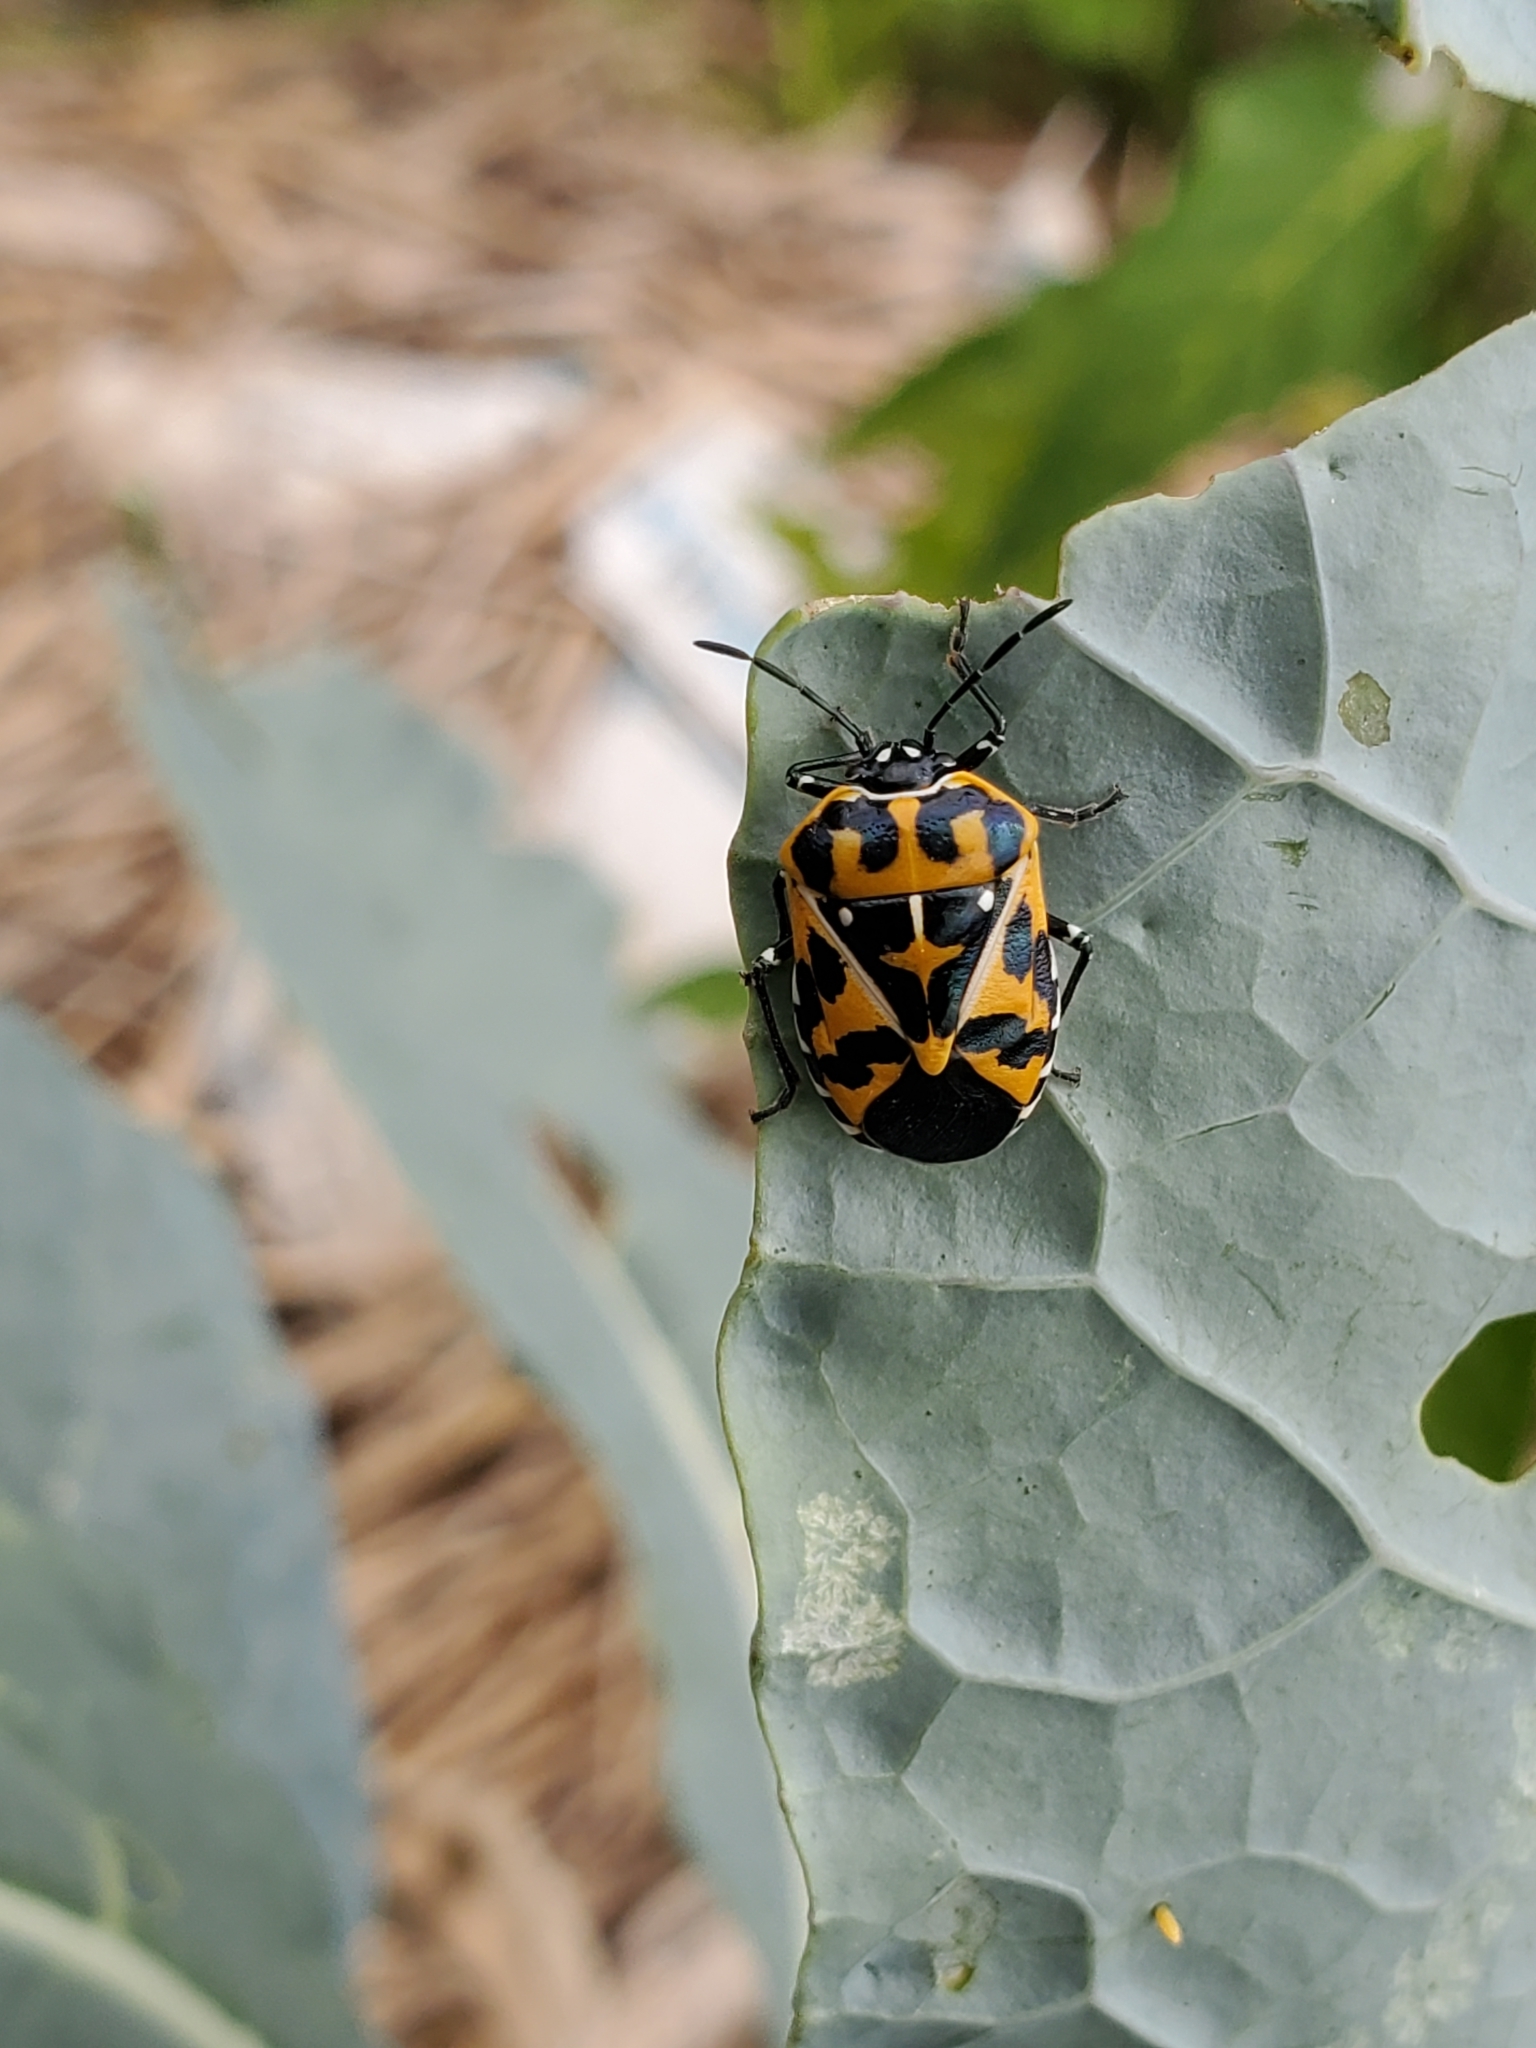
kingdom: Animalia
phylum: Arthropoda
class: Insecta
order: Hemiptera
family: Pentatomidae
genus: Murgantia
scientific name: Murgantia histrionica
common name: Harlequin bug
